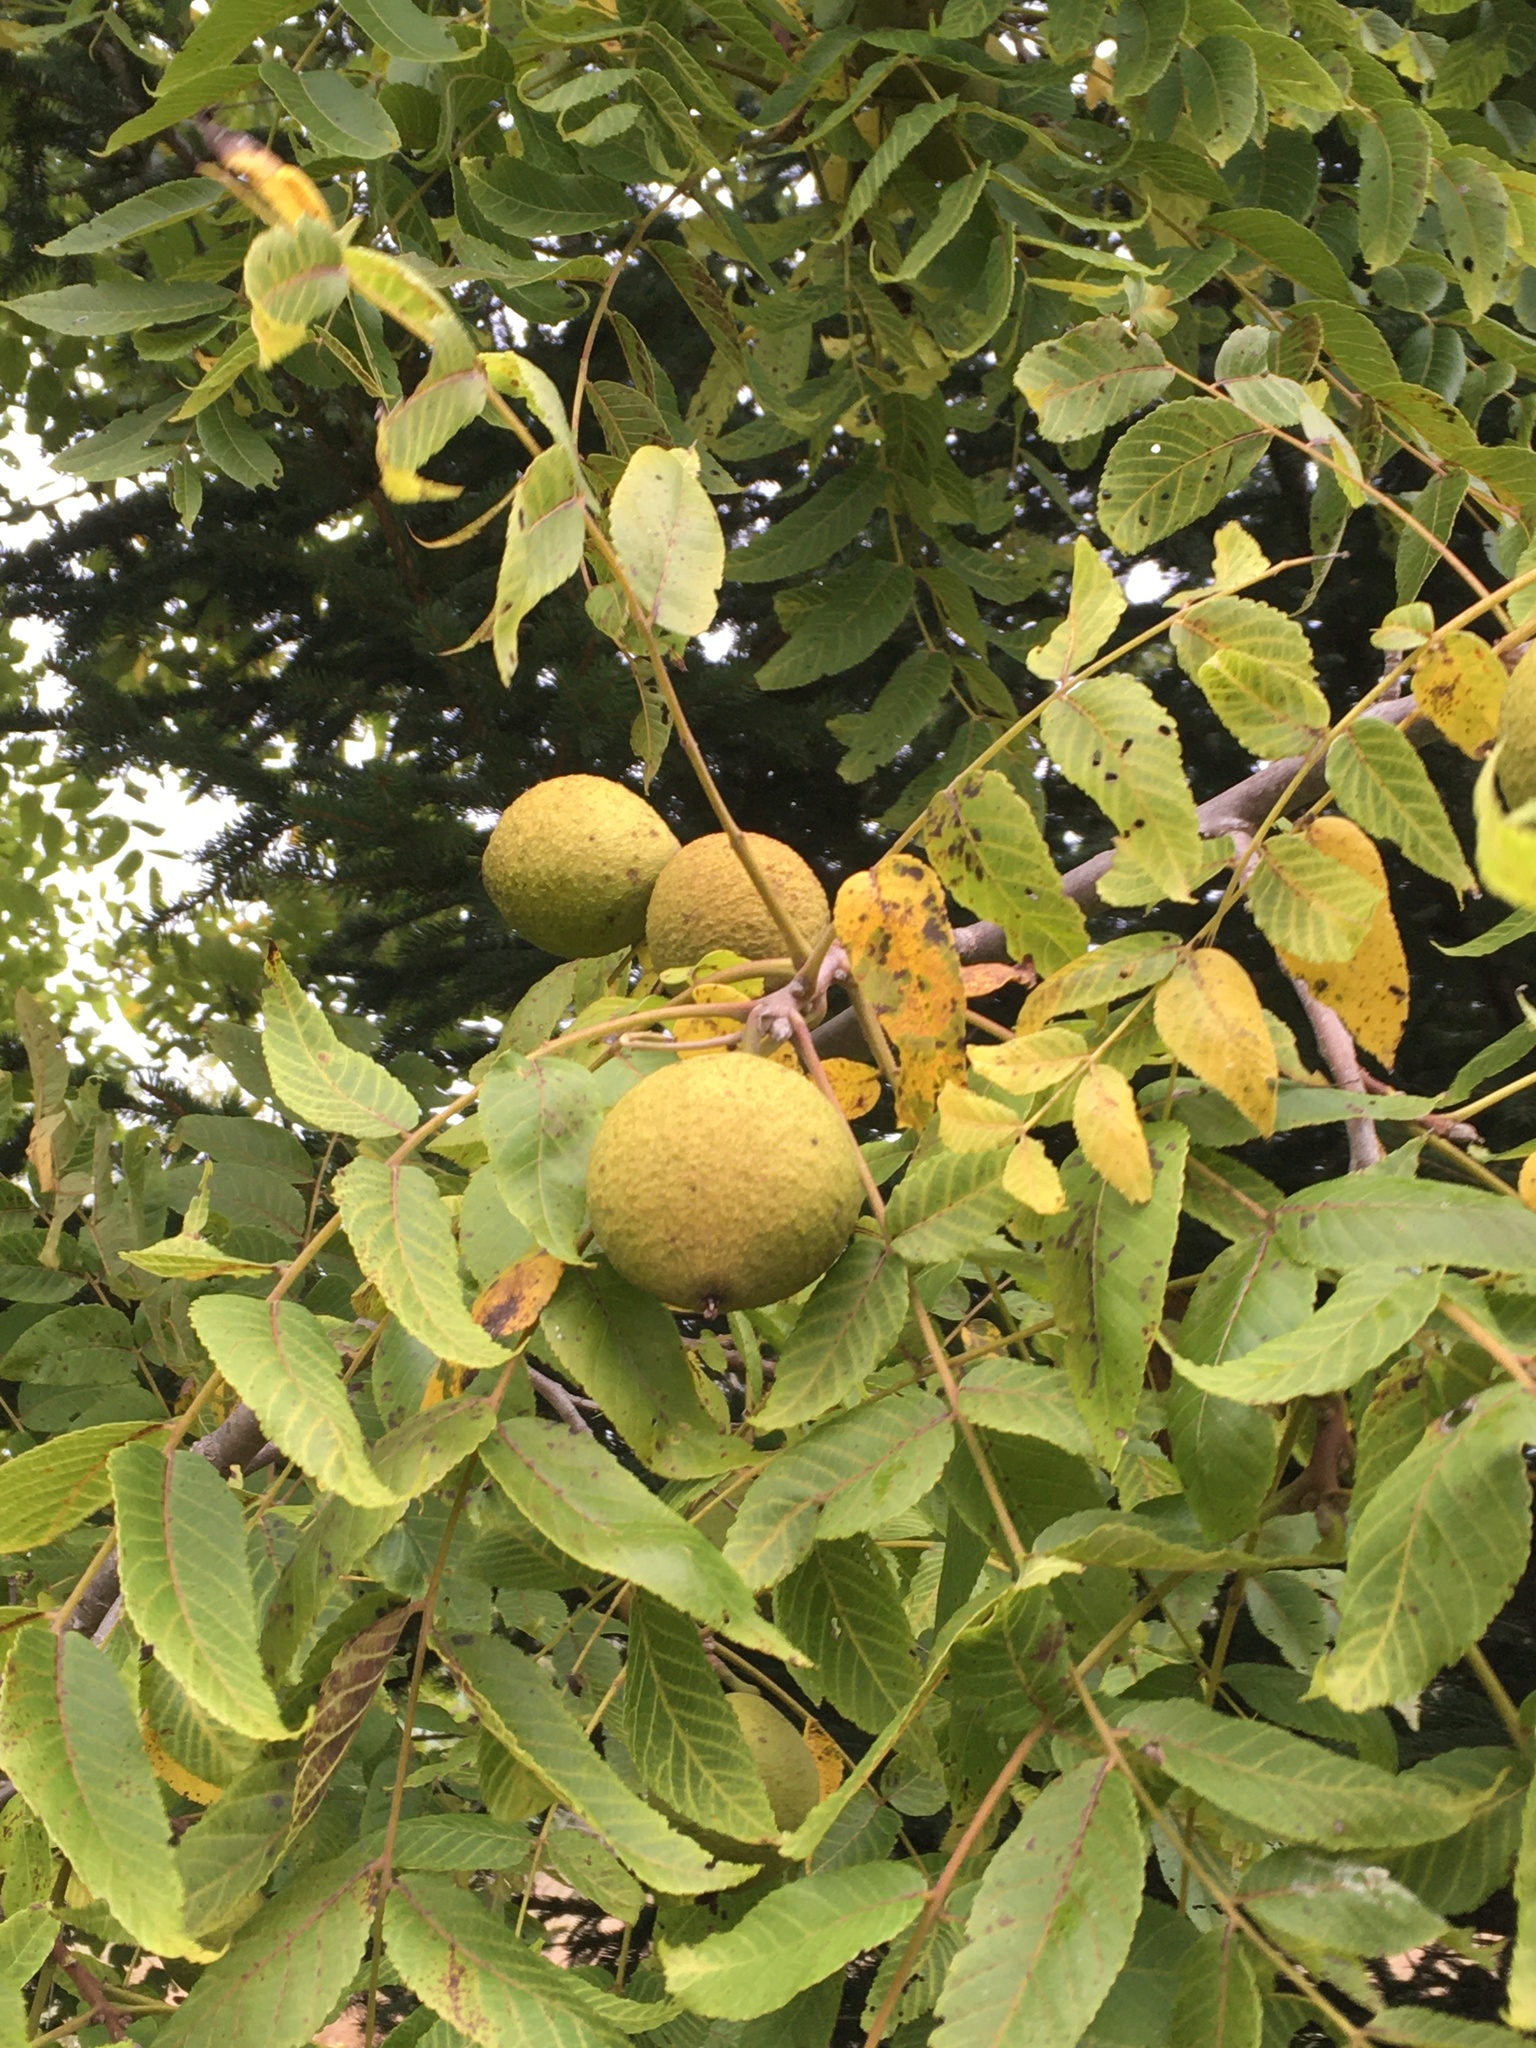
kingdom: Plantae
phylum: Tracheophyta
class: Magnoliopsida
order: Fagales
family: Juglandaceae
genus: Juglans
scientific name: Juglans nigra
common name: Black walnut
